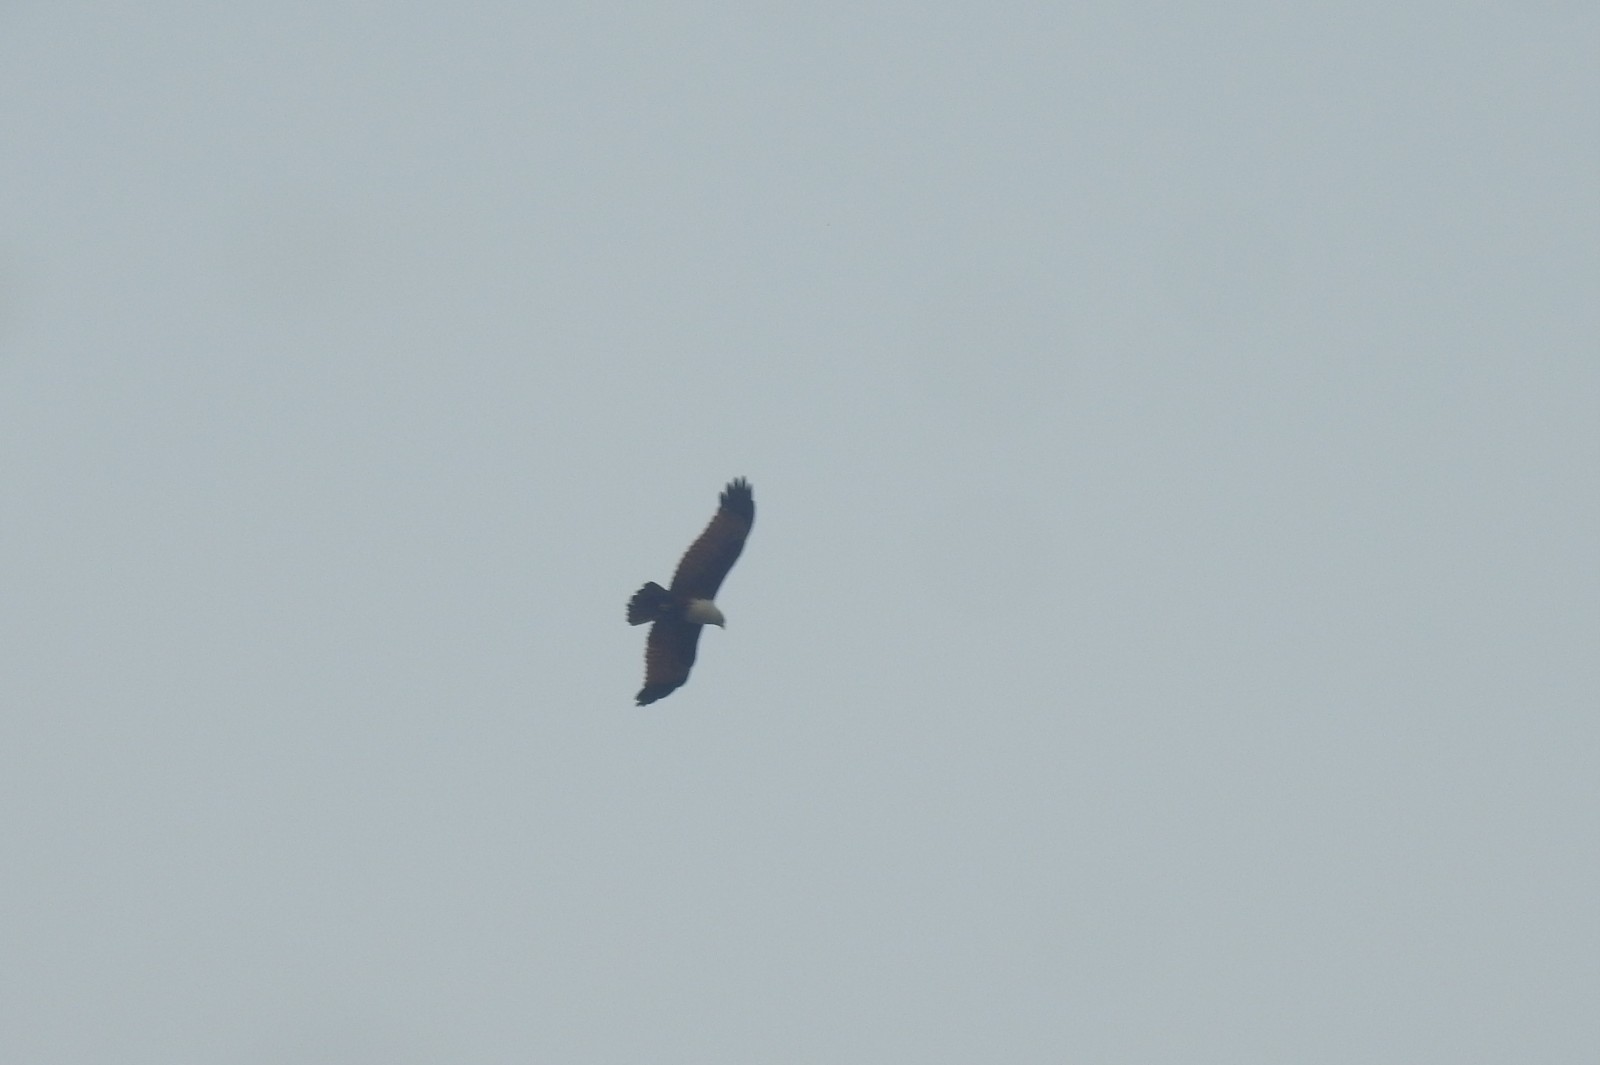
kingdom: Animalia
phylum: Chordata
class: Aves
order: Accipitriformes
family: Accipitridae
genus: Haliastur
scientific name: Haliastur indus
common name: Brahminy kite
